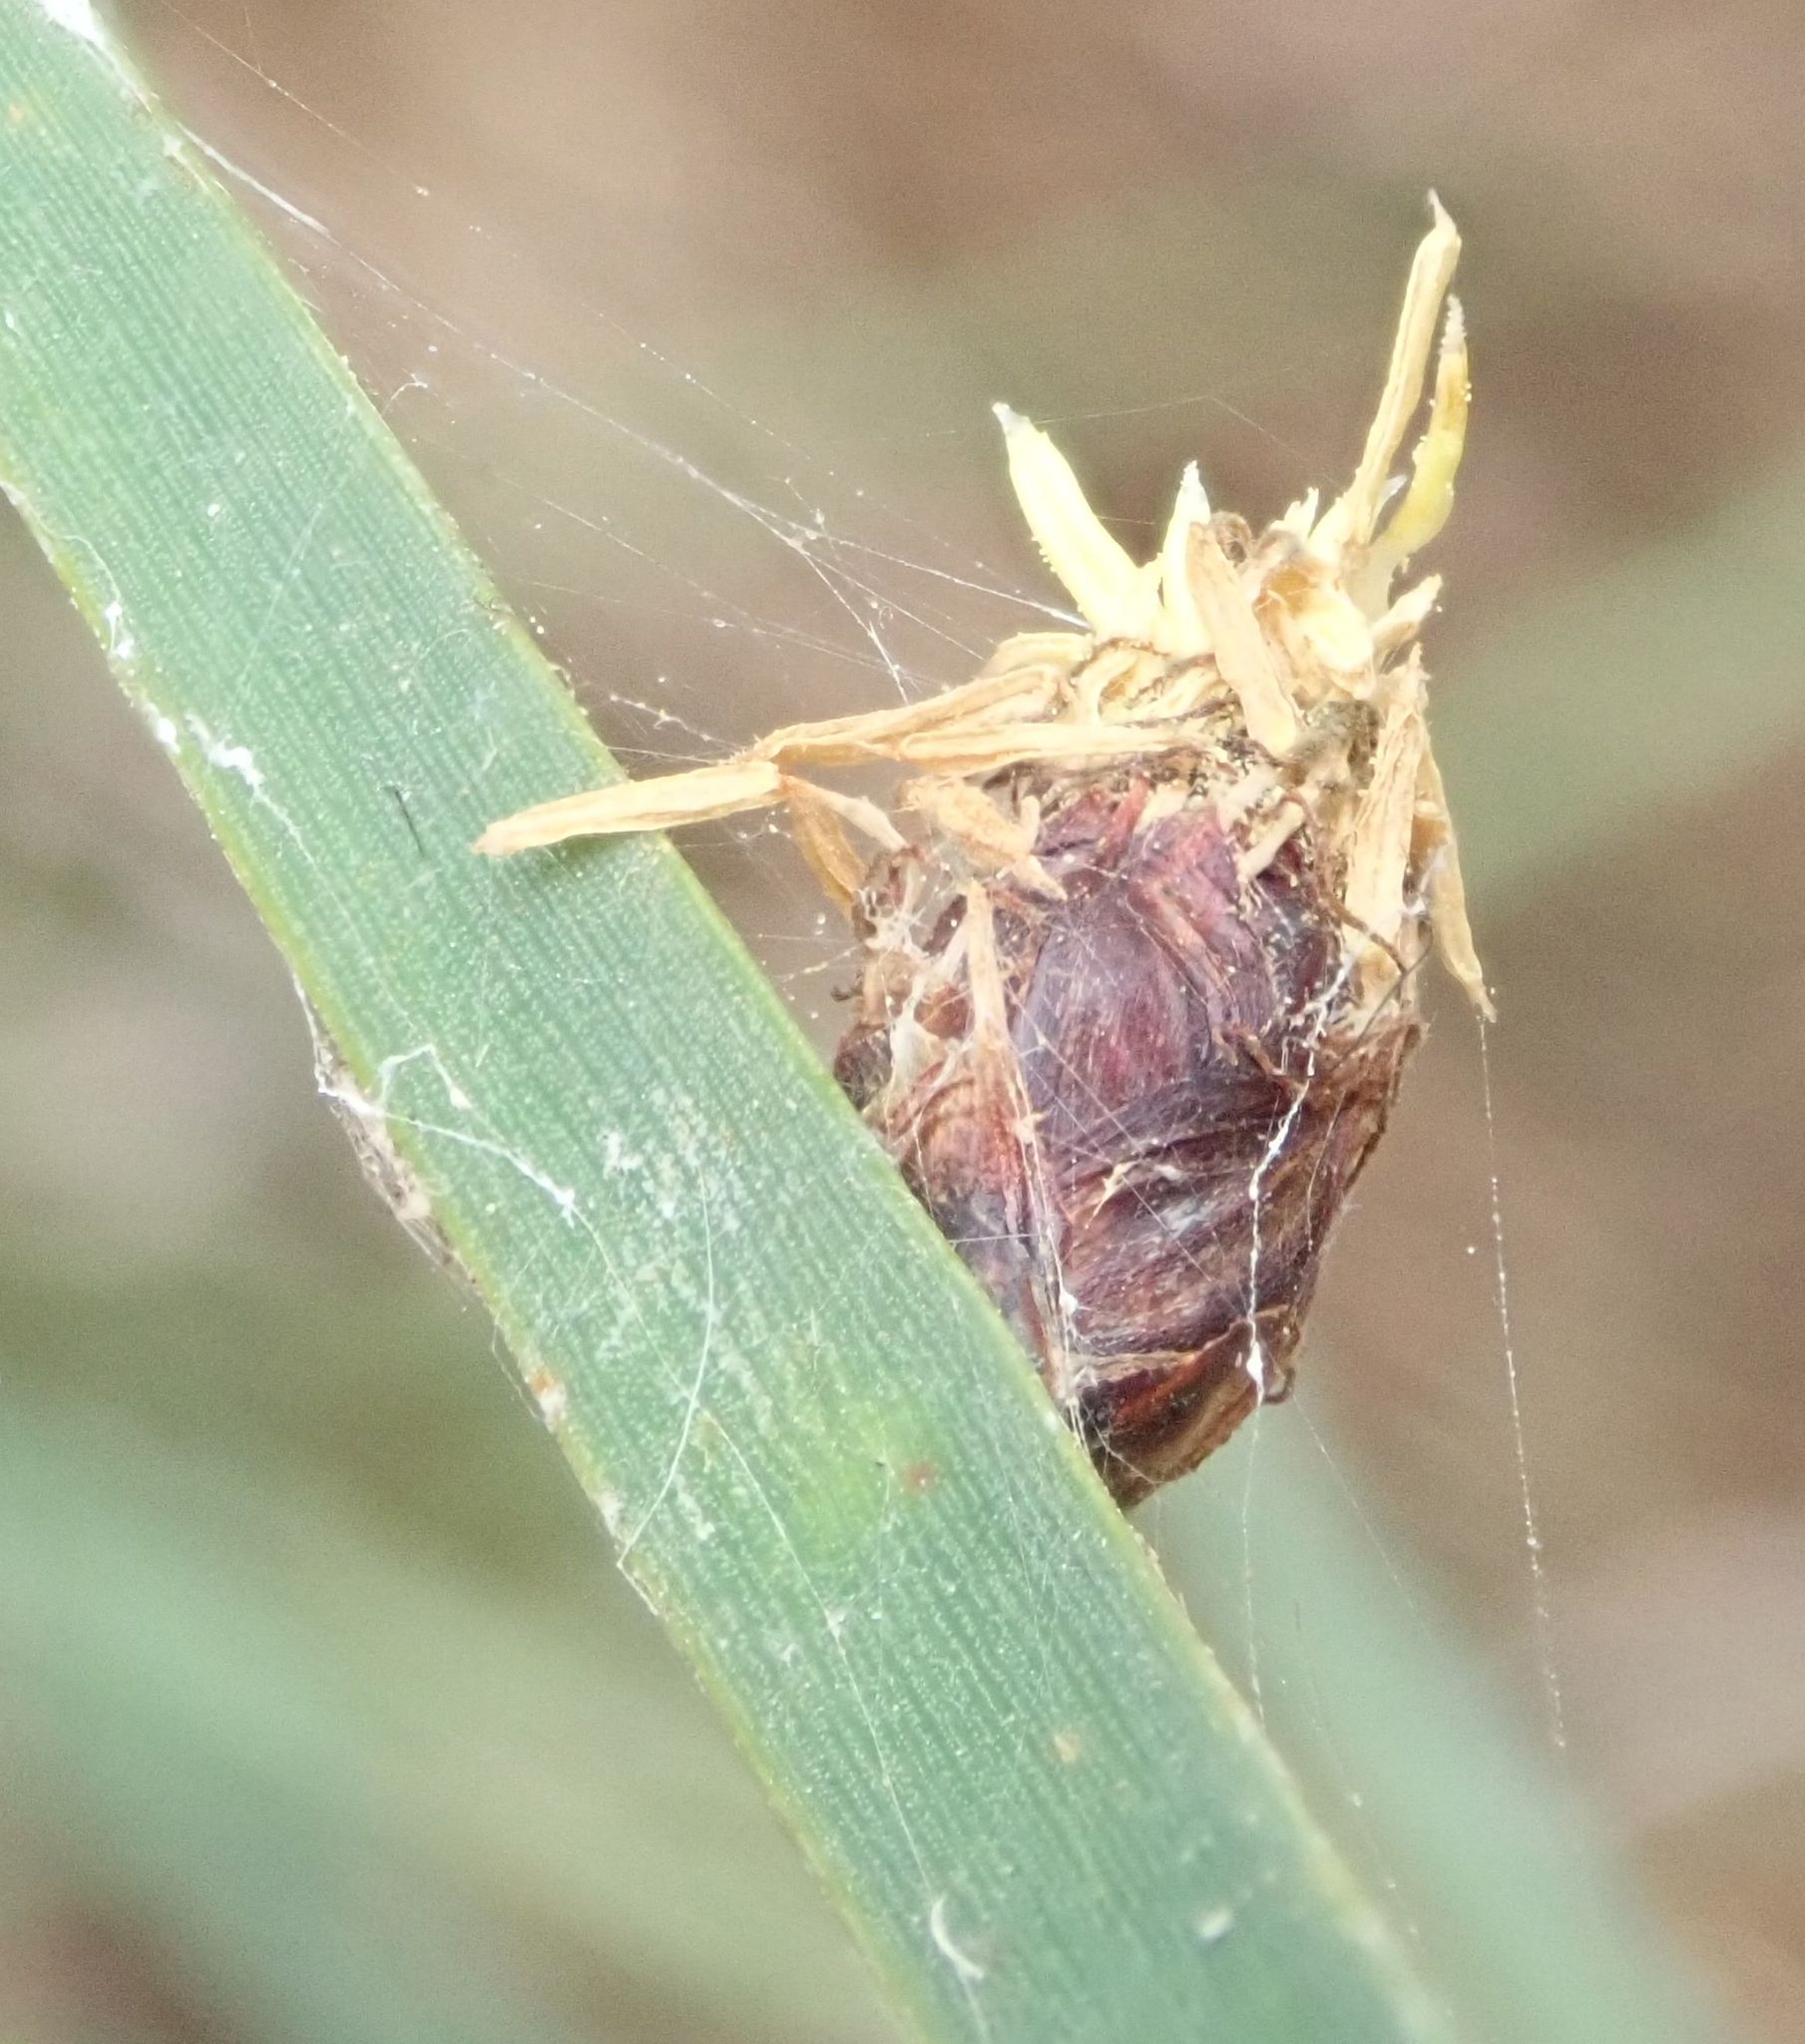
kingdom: Plantae
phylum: Tracheophyta
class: Liliopsida
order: Poales
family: Cyperaceae
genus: Schoenoplectus
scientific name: Schoenoplectus pungens
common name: Sharp club-rush
